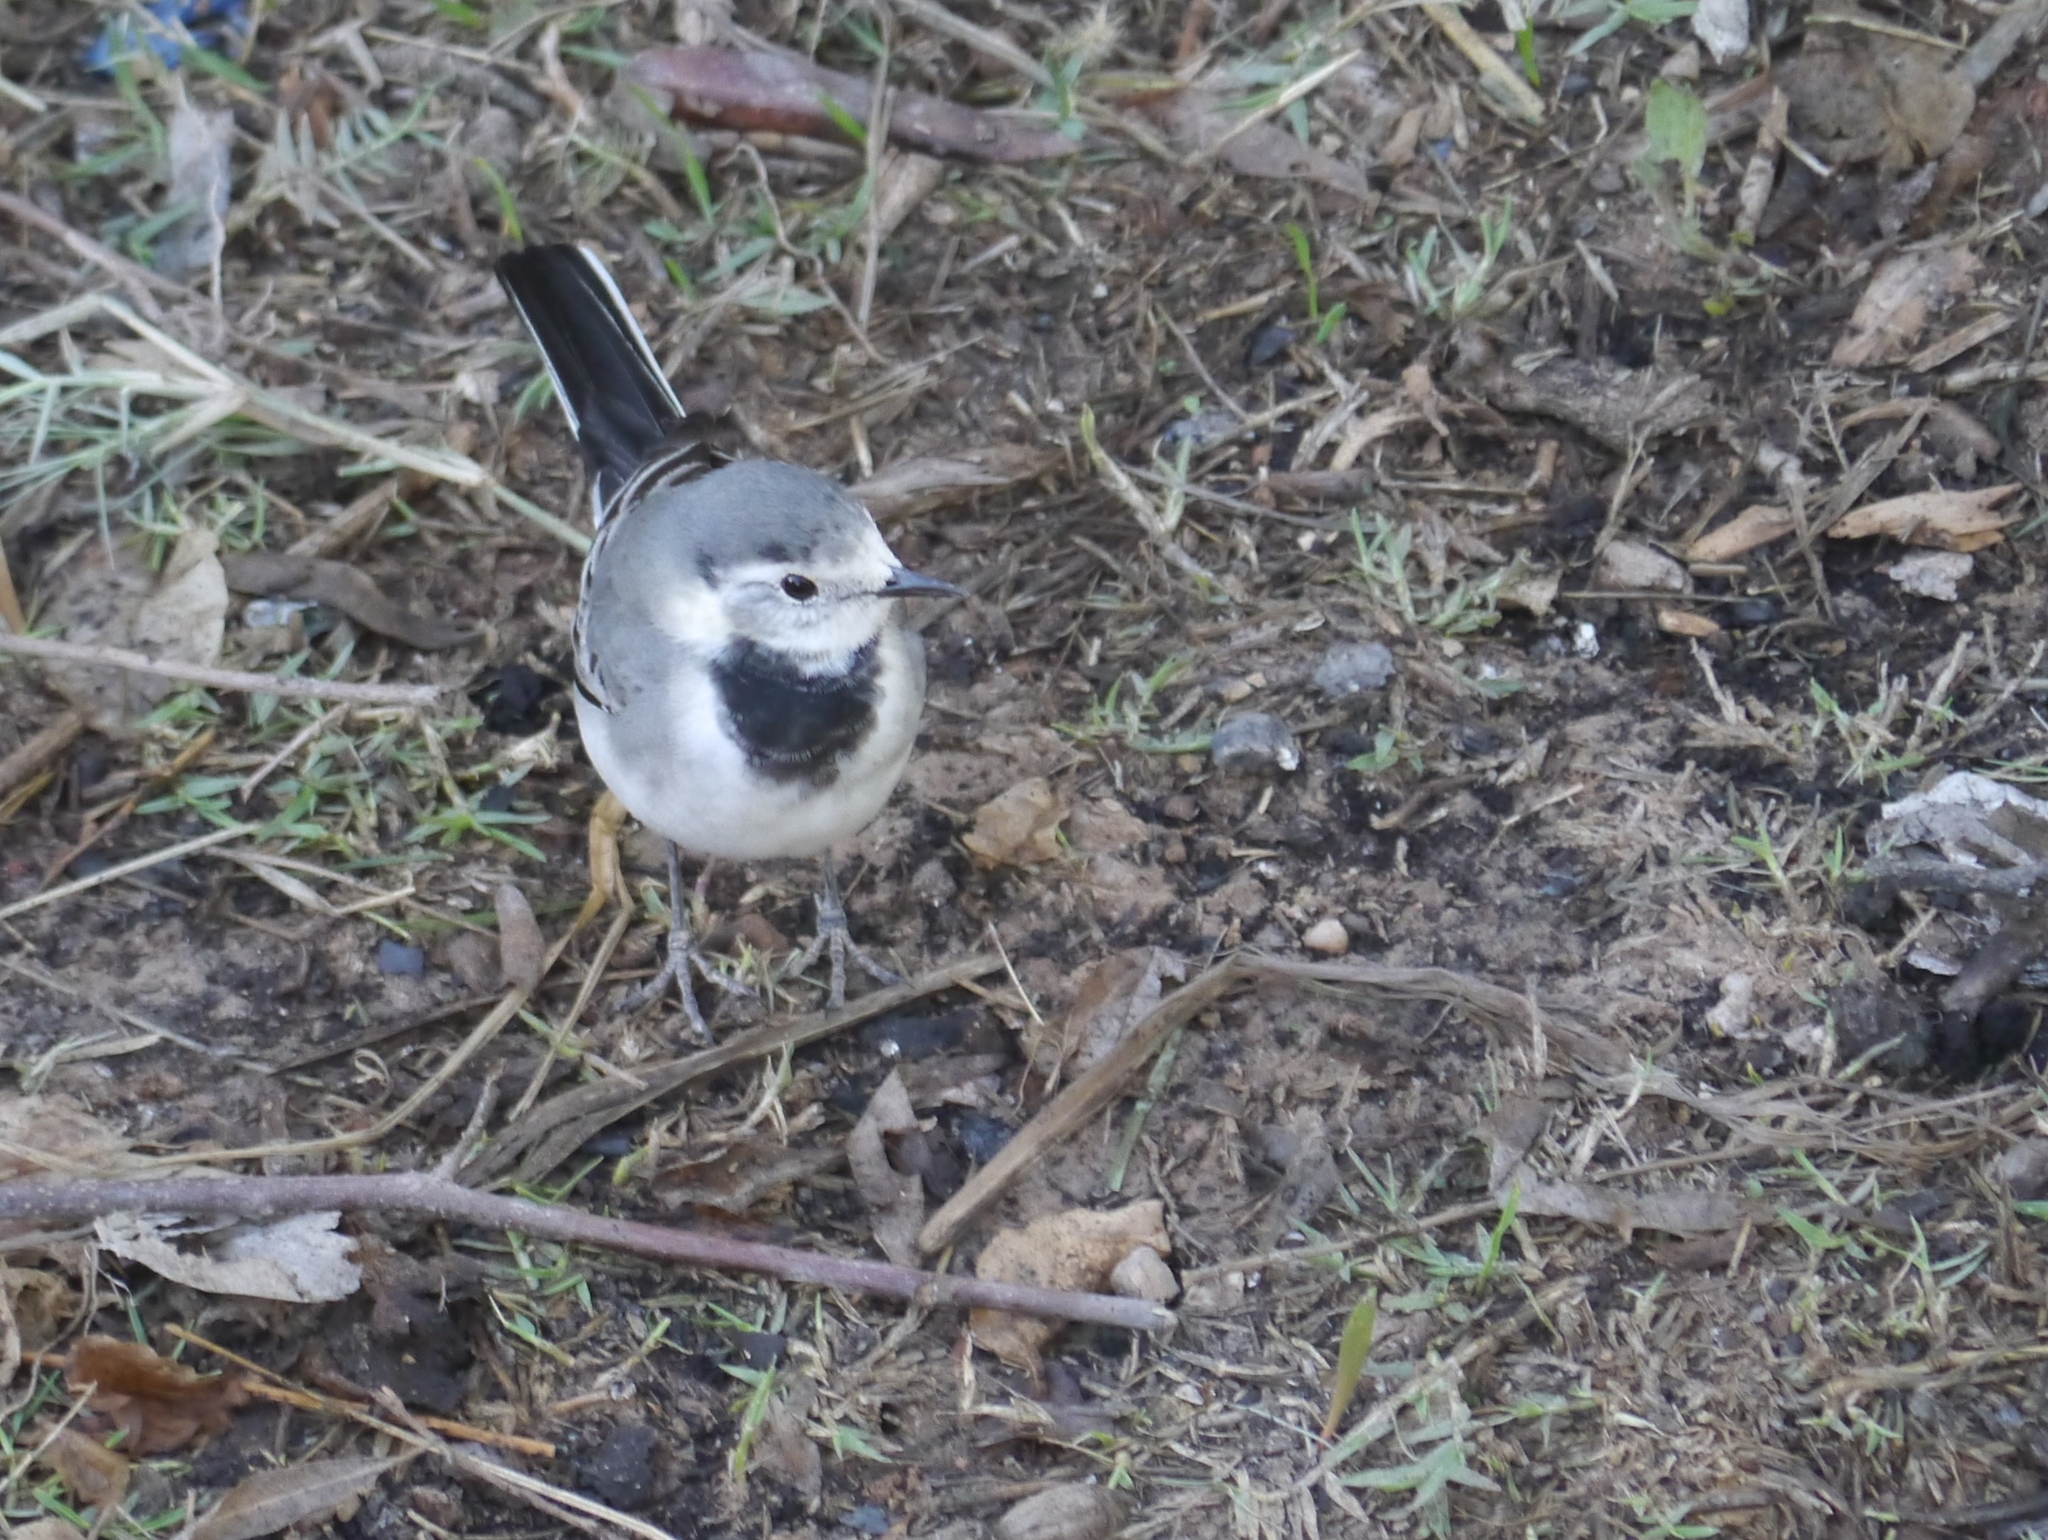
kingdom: Animalia
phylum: Chordata
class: Aves
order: Passeriformes
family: Motacillidae
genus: Motacilla
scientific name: Motacilla alba
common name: White wagtail
